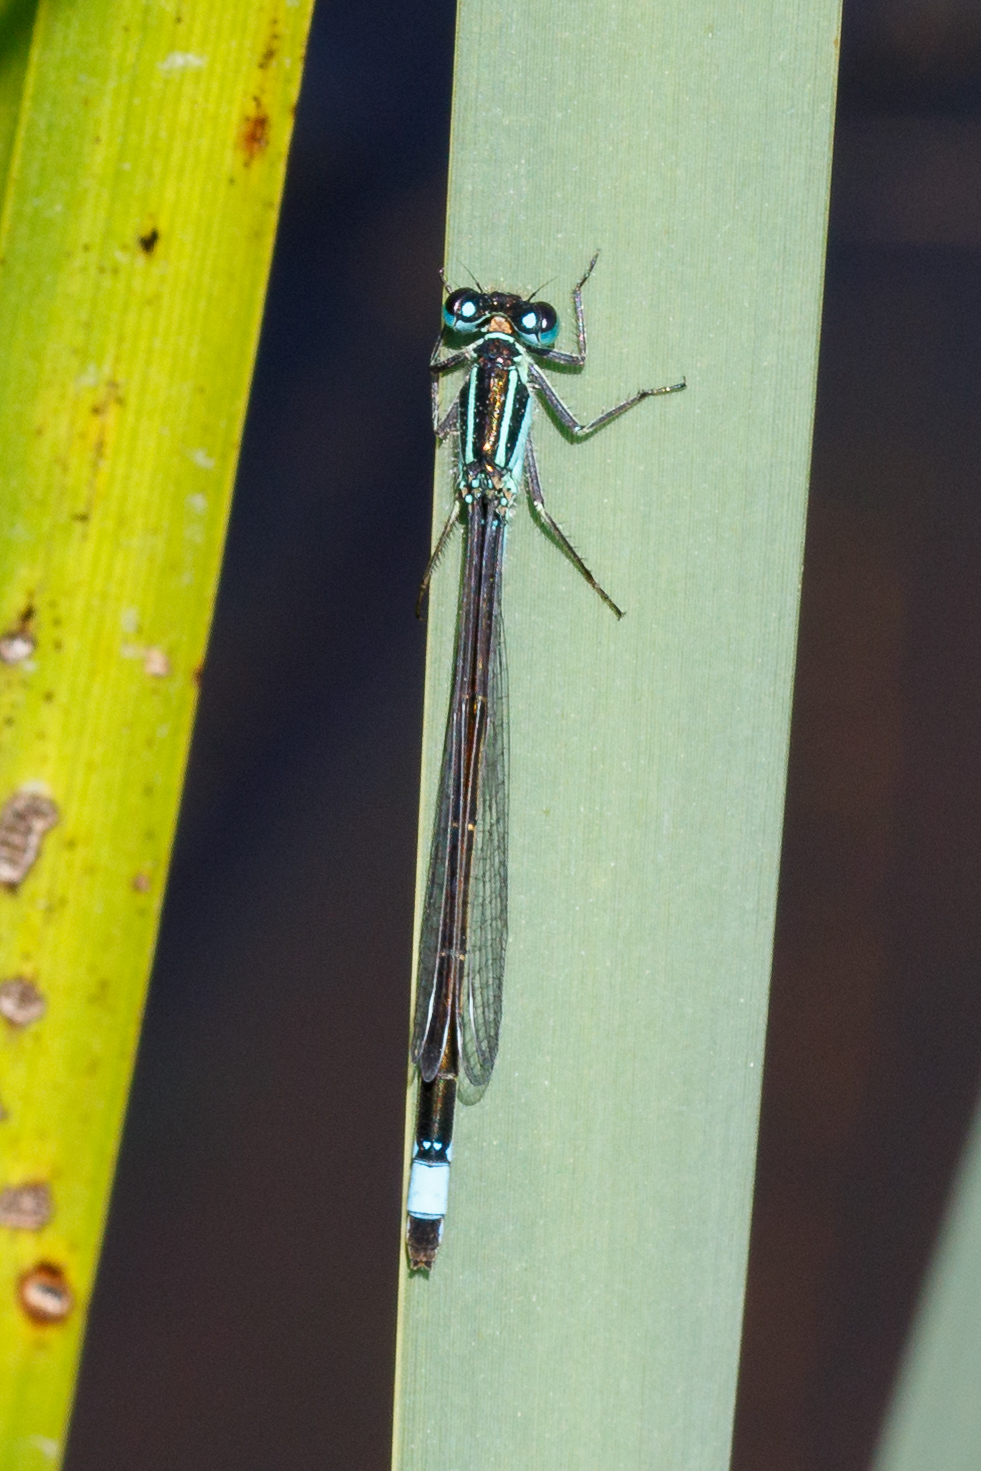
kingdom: Animalia
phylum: Arthropoda
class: Insecta
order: Odonata
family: Coenagrionidae
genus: Ischnura
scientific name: Ischnura elegans
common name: Blue-tailed damselfly
